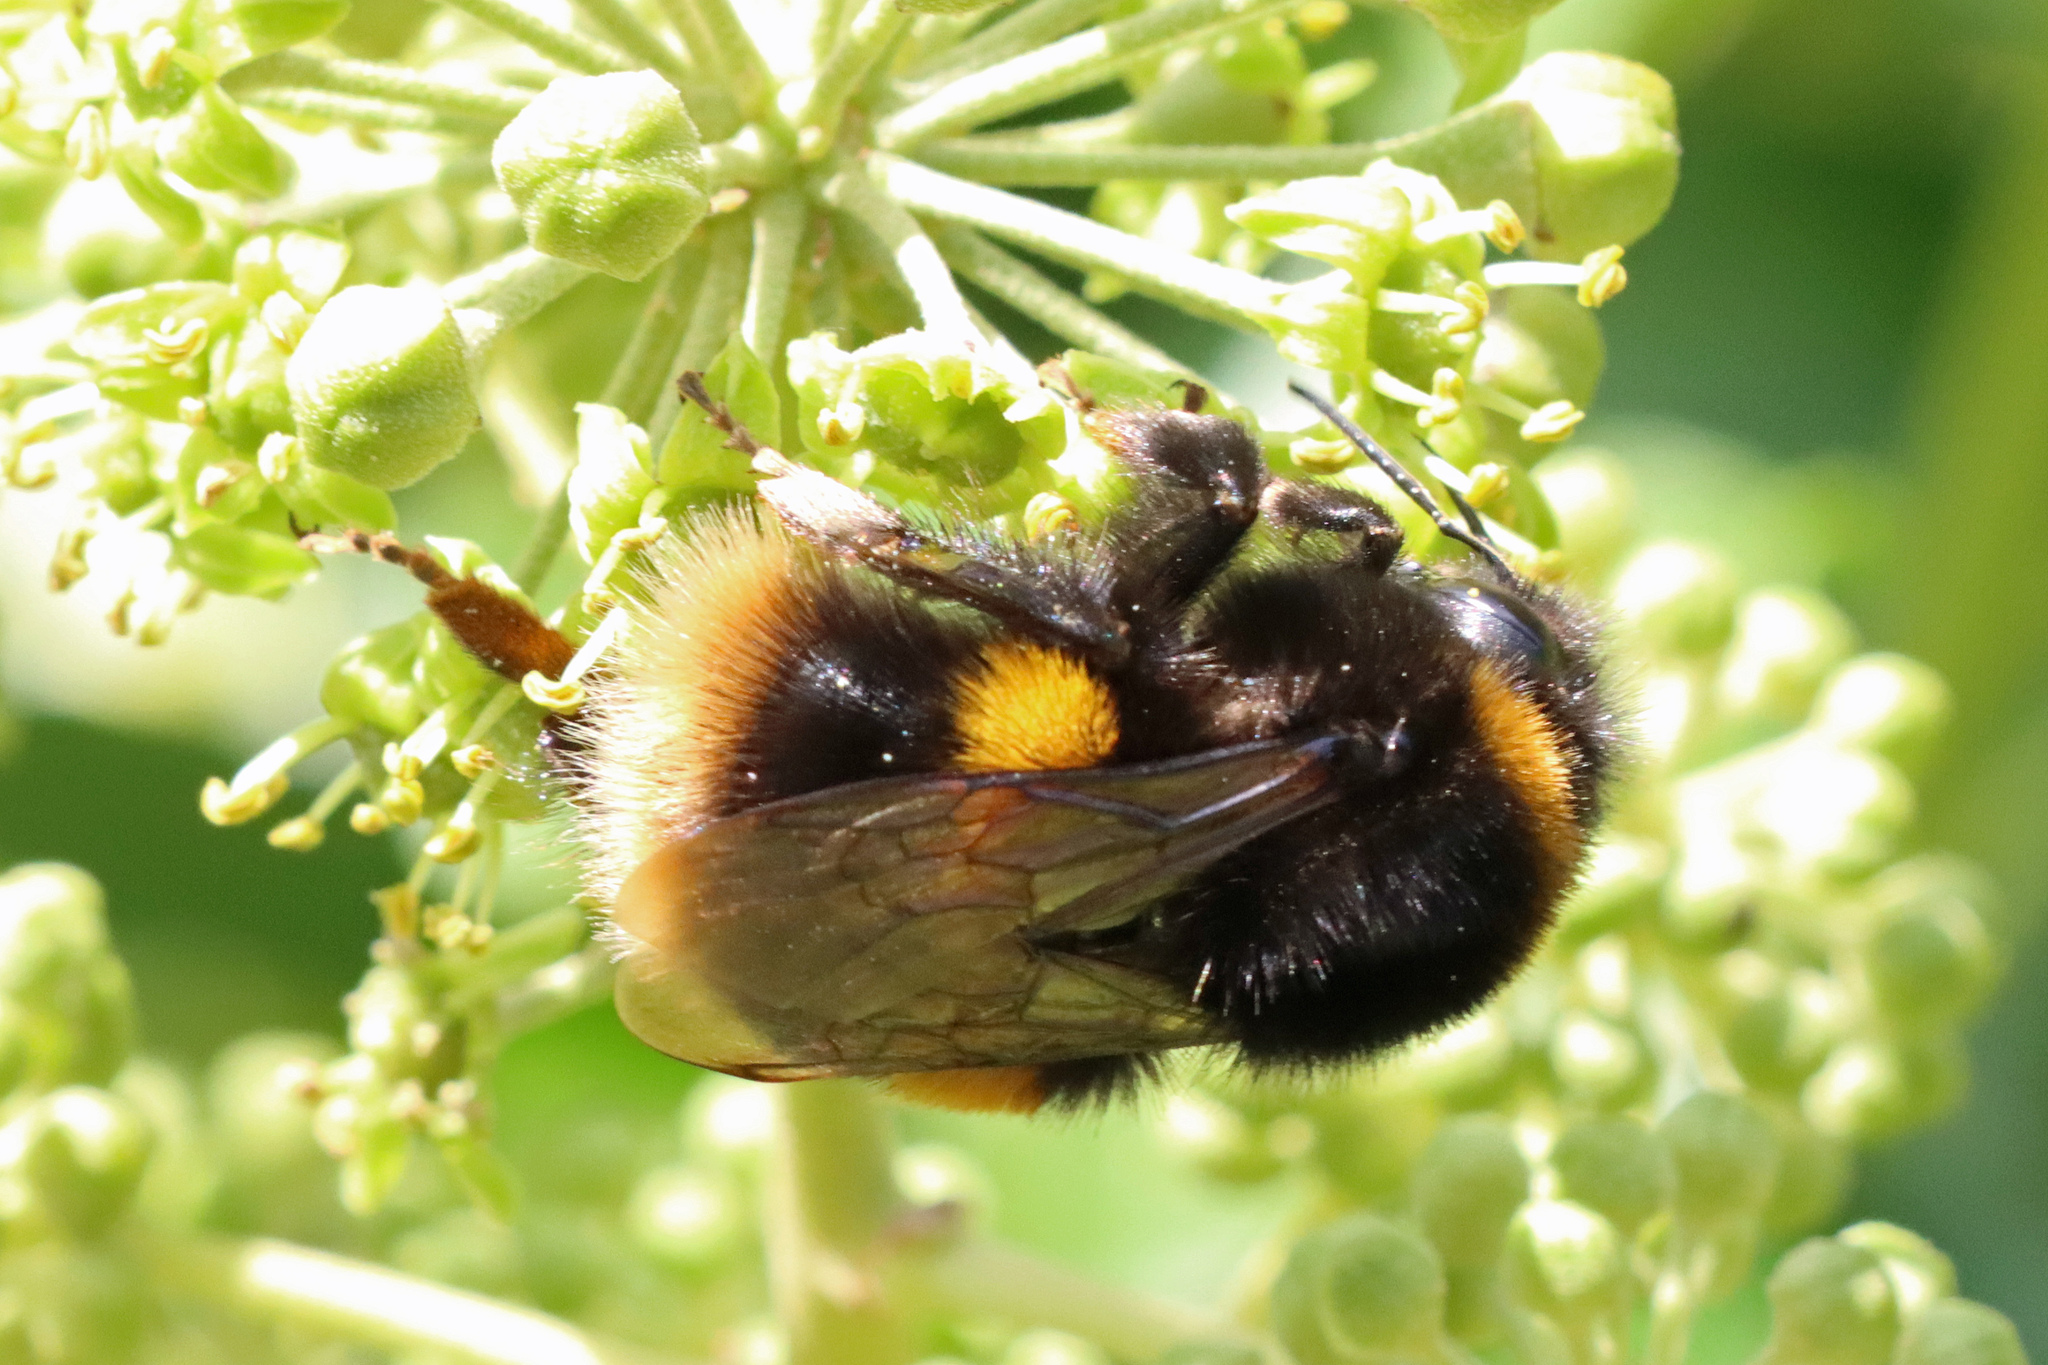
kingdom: Animalia
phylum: Arthropoda
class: Insecta
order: Hymenoptera
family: Apidae
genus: Bombus
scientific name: Bombus terrestris
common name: Buff-tailed bumblebee
